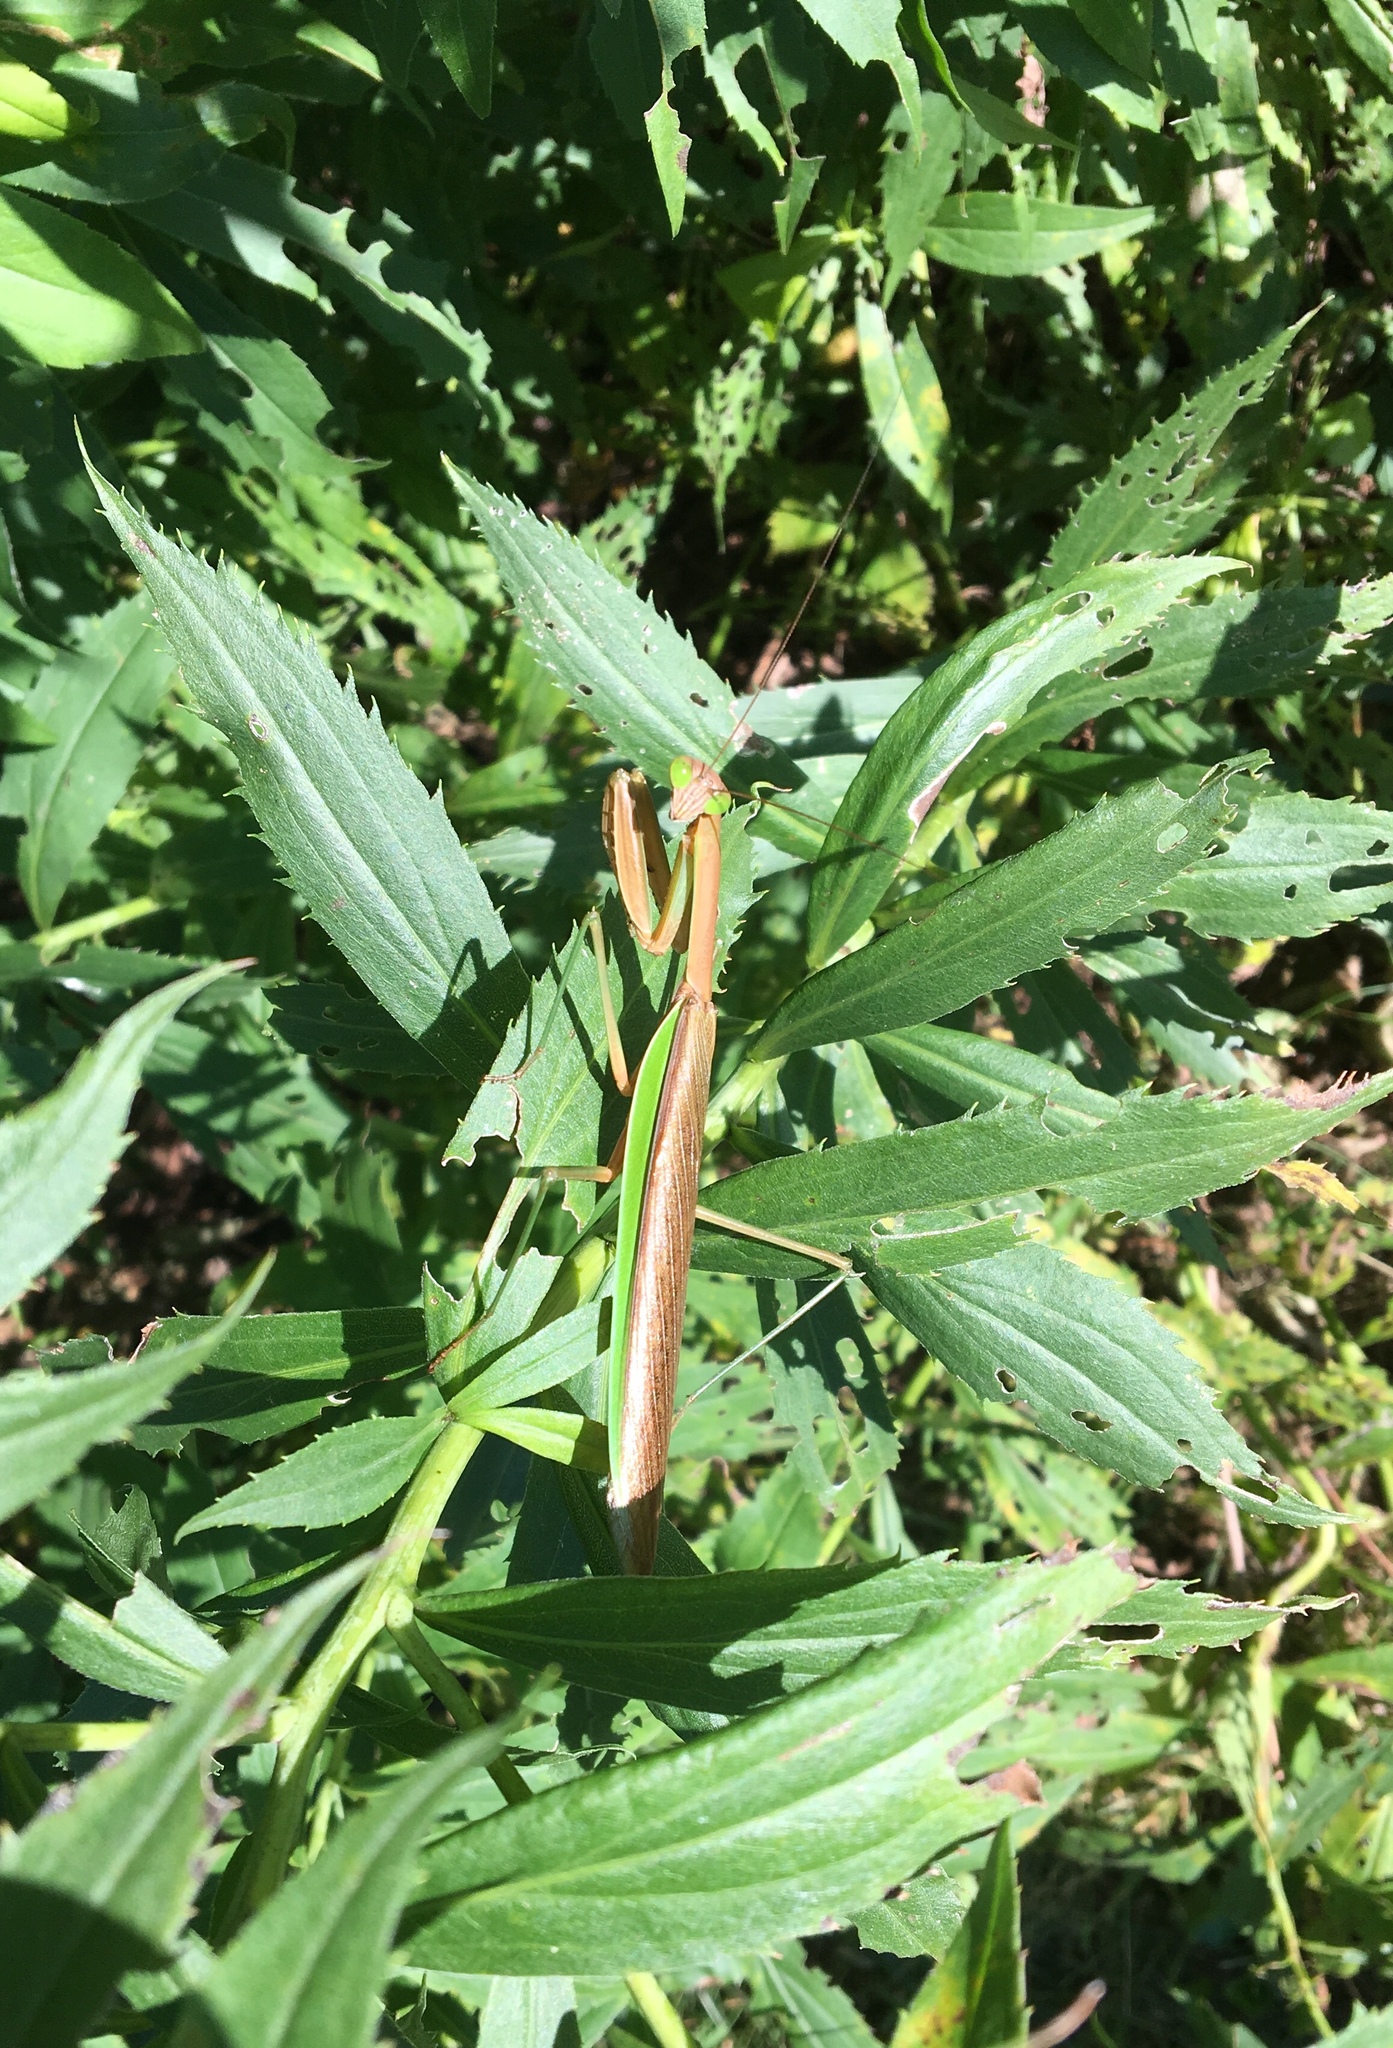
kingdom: Animalia
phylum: Arthropoda
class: Insecta
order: Mantodea
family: Mantidae
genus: Tenodera
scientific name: Tenodera sinensis
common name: Chinese mantis
